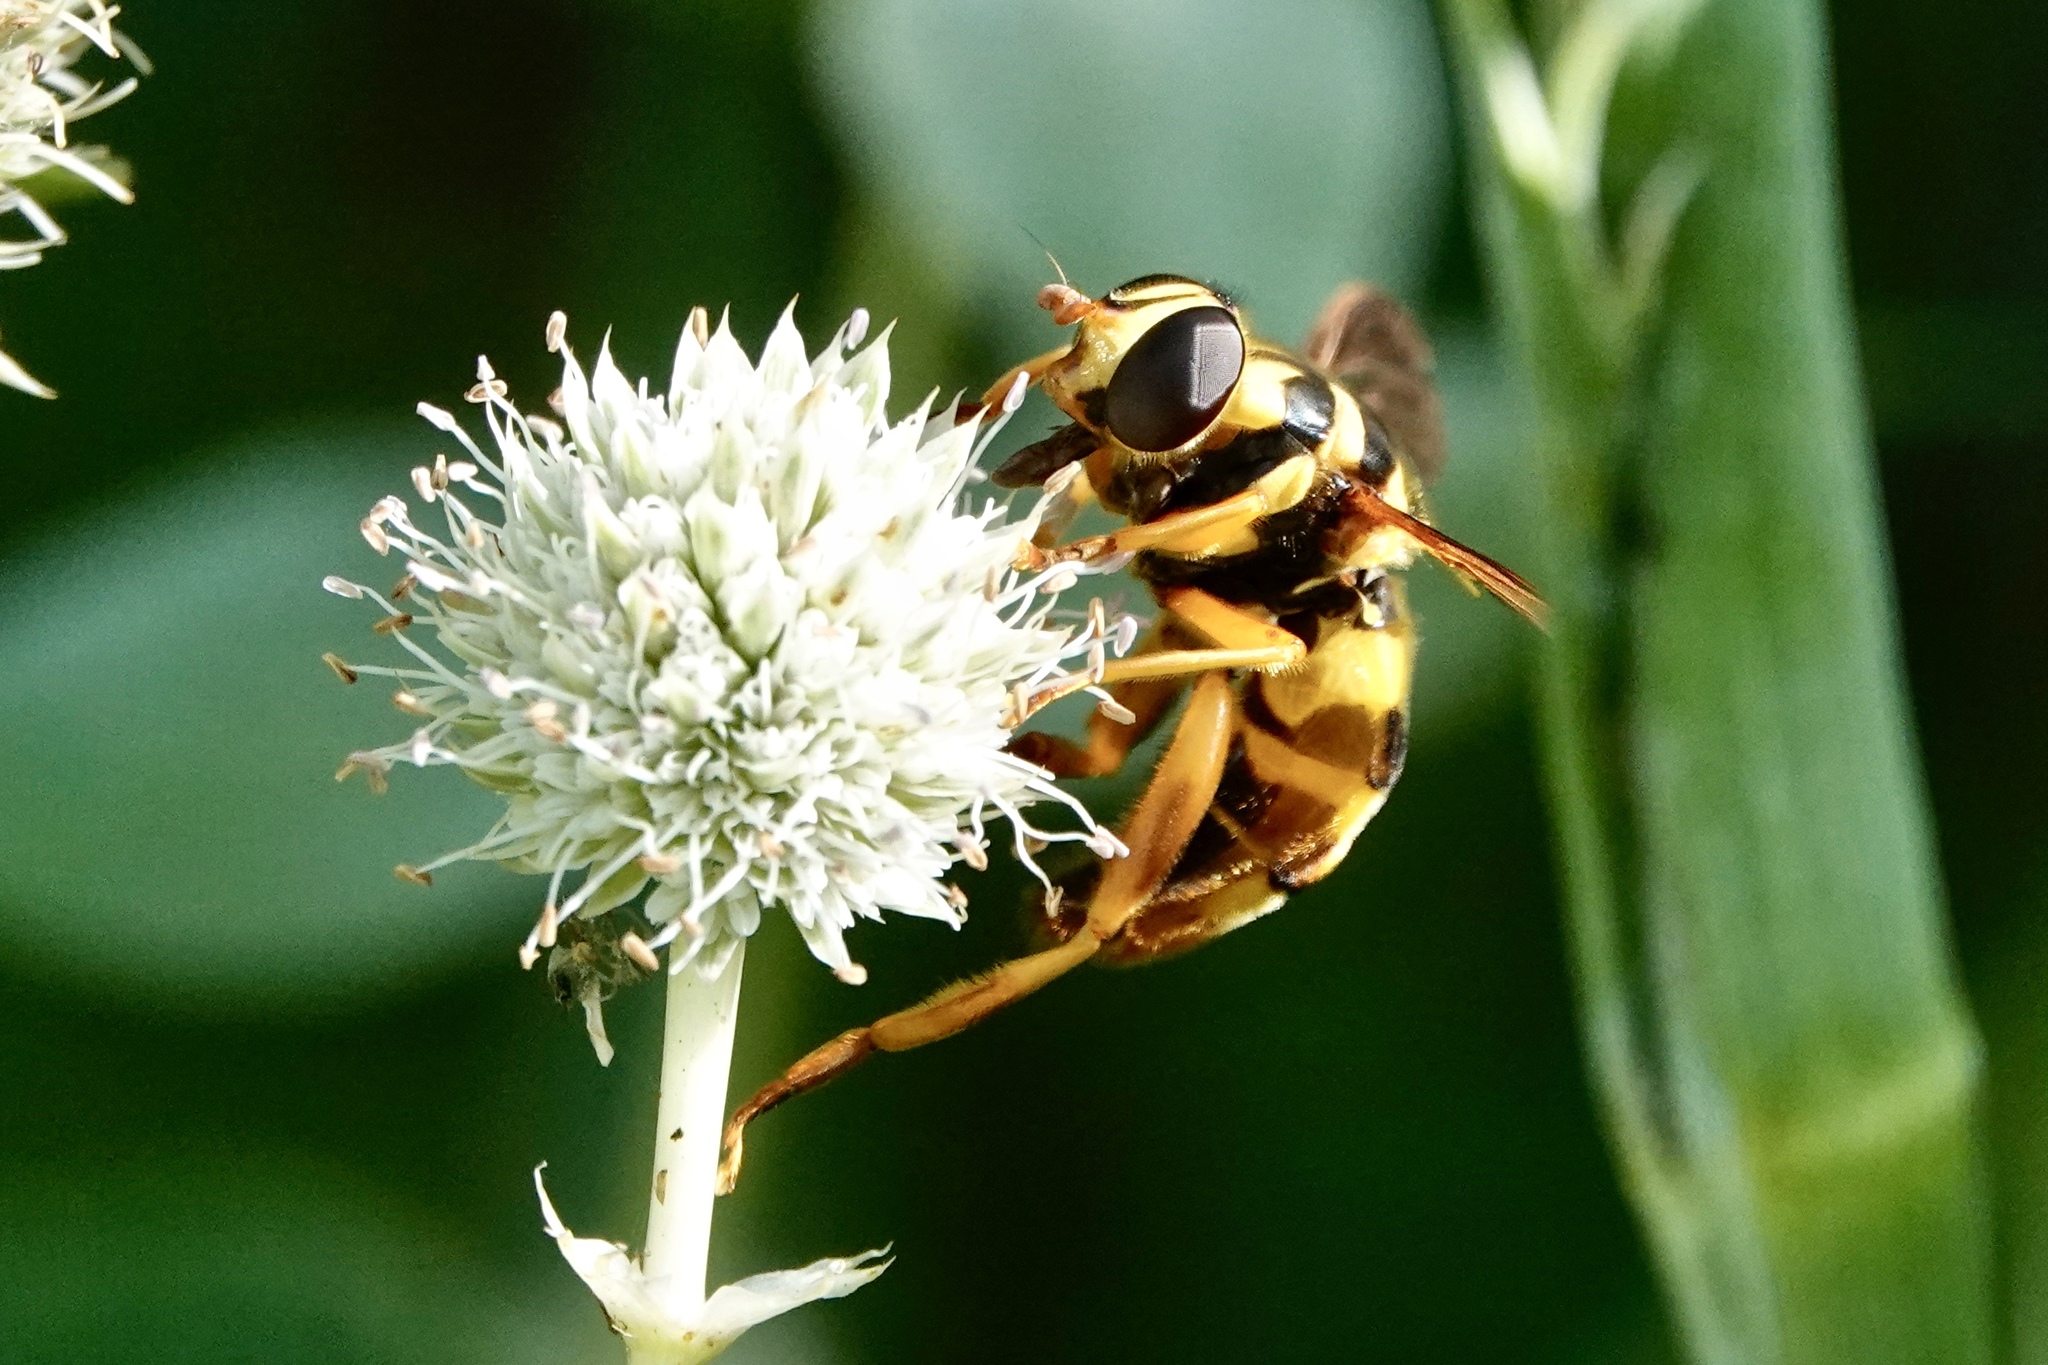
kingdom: Animalia
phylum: Arthropoda
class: Insecta
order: Diptera
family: Syrphidae
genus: Milesia
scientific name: Milesia virginiensis
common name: Virginia giant
